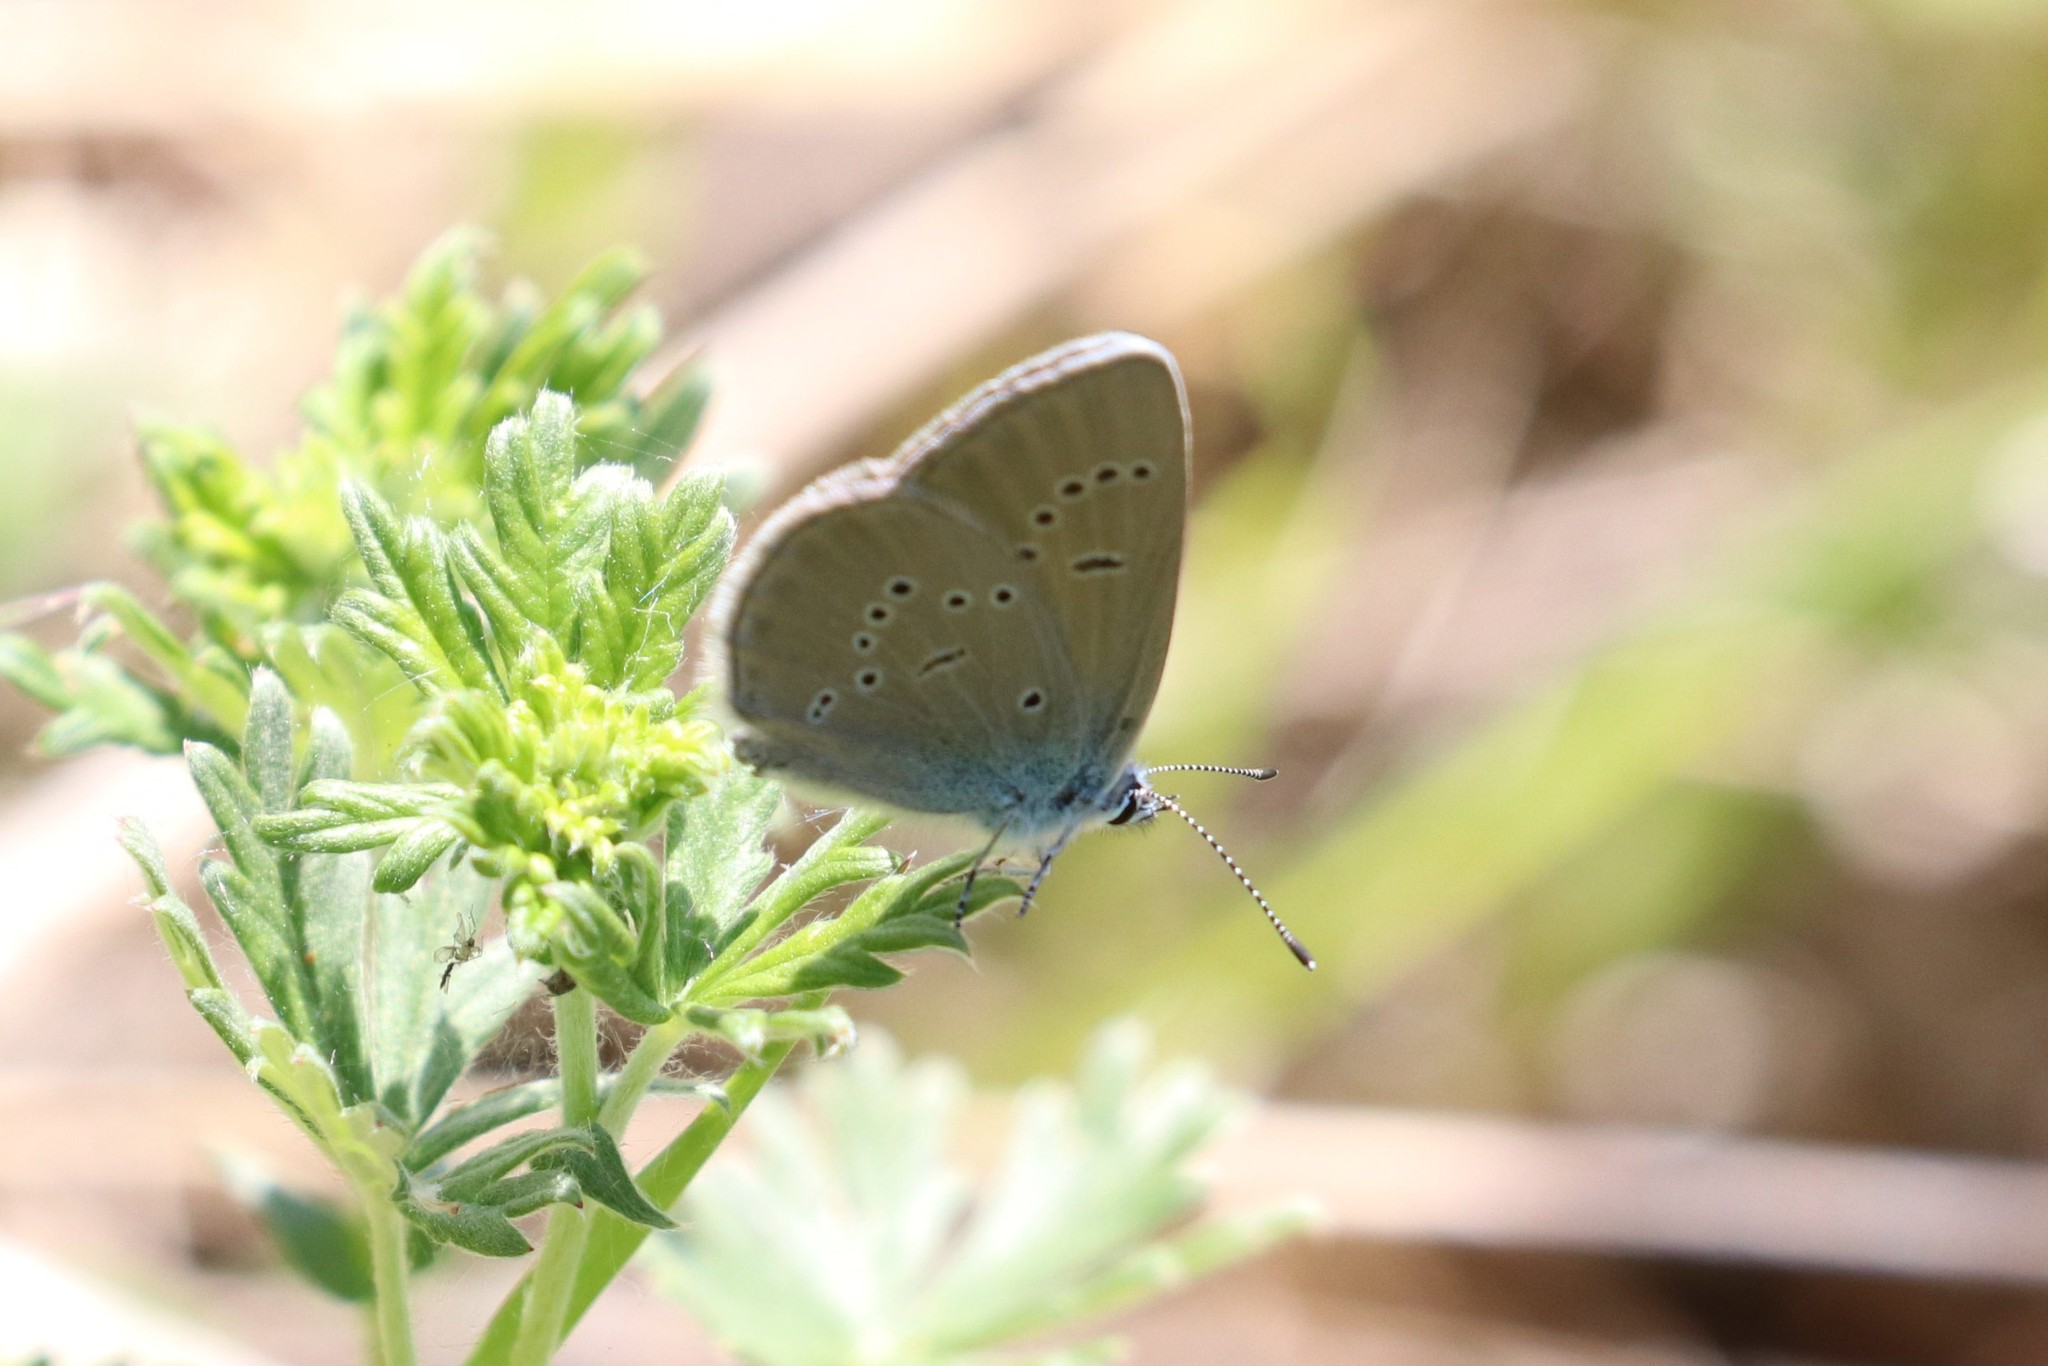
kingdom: Animalia
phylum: Arthropoda
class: Insecta
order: Lepidoptera
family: Lycaenidae
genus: Cyaniris
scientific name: Cyaniris semiargus
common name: Mazarine blue
